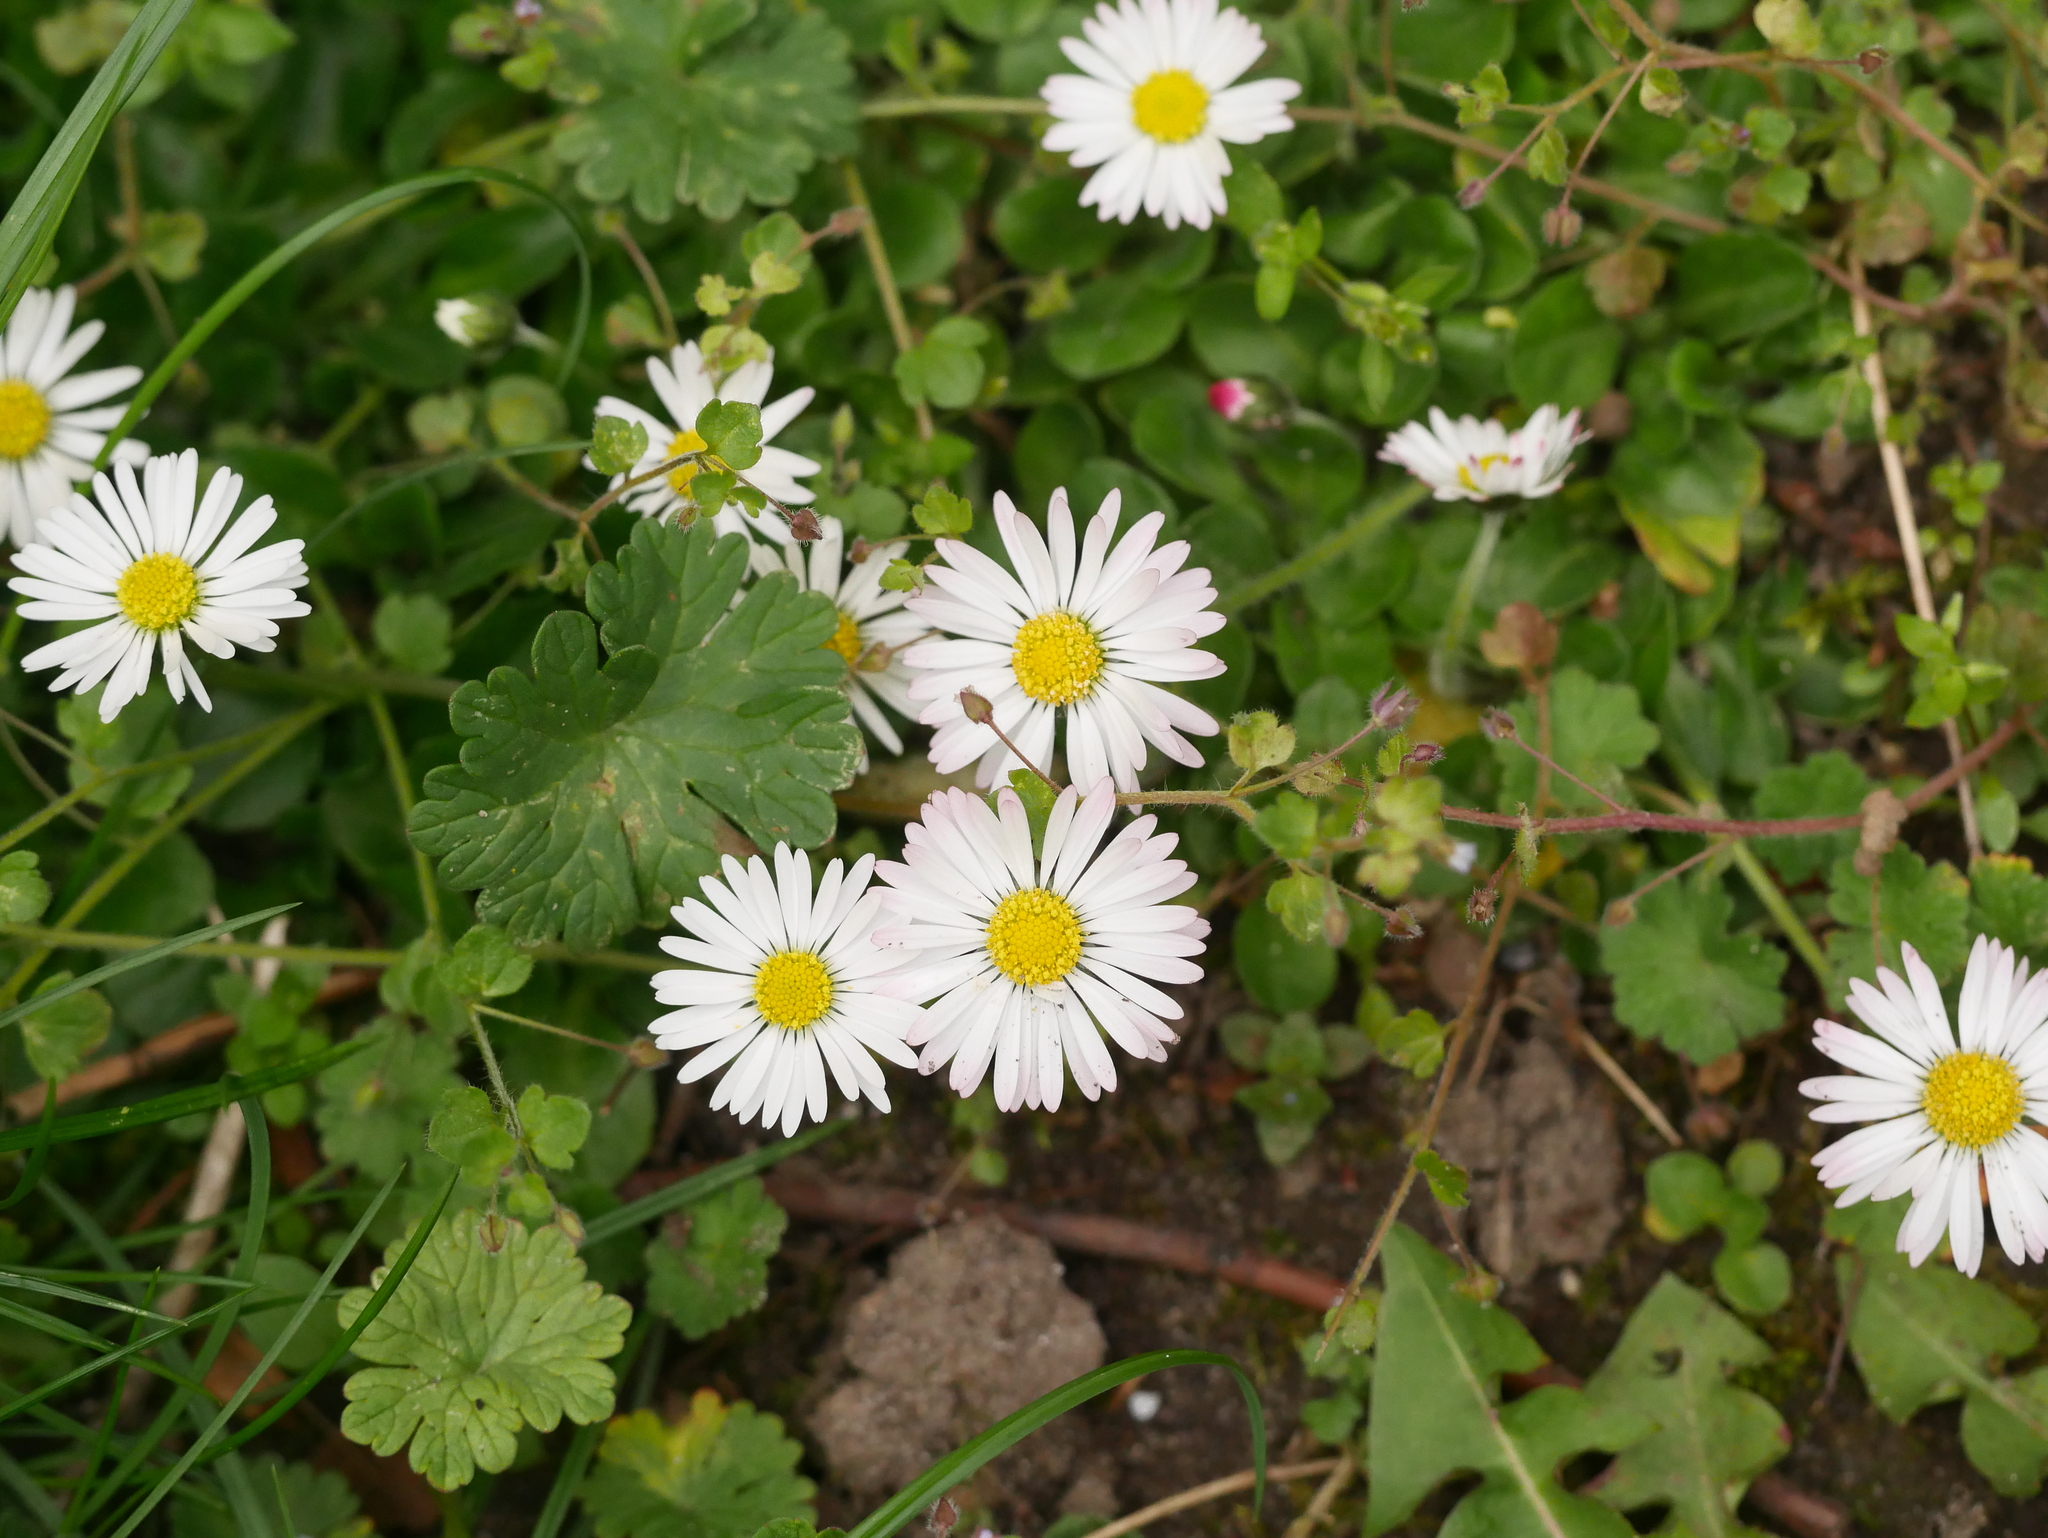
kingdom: Plantae
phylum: Tracheophyta
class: Magnoliopsida
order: Asterales
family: Asteraceae
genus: Bellis
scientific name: Bellis perennis
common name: Lawndaisy
